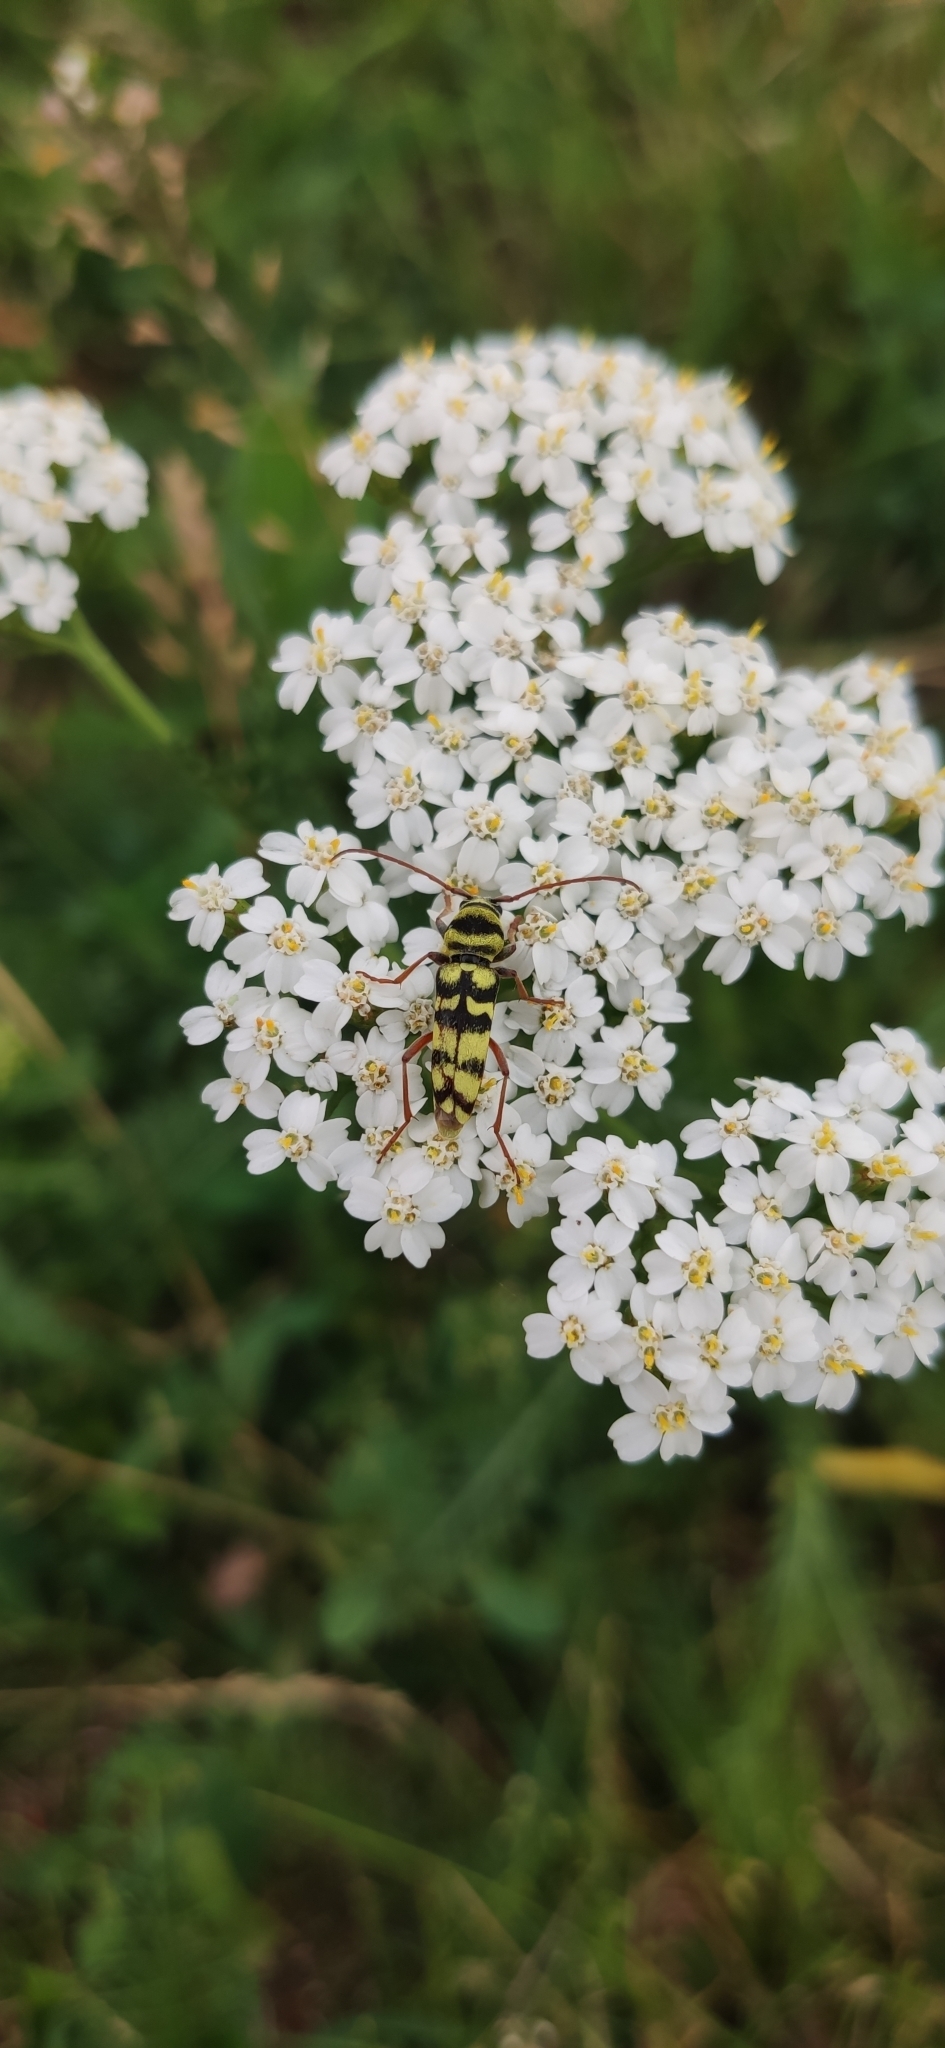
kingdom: Animalia
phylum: Arthropoda
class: Insecta
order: Coleoptera
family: Cerambycidae
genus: Plagionotus
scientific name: Plagionotus floralis
